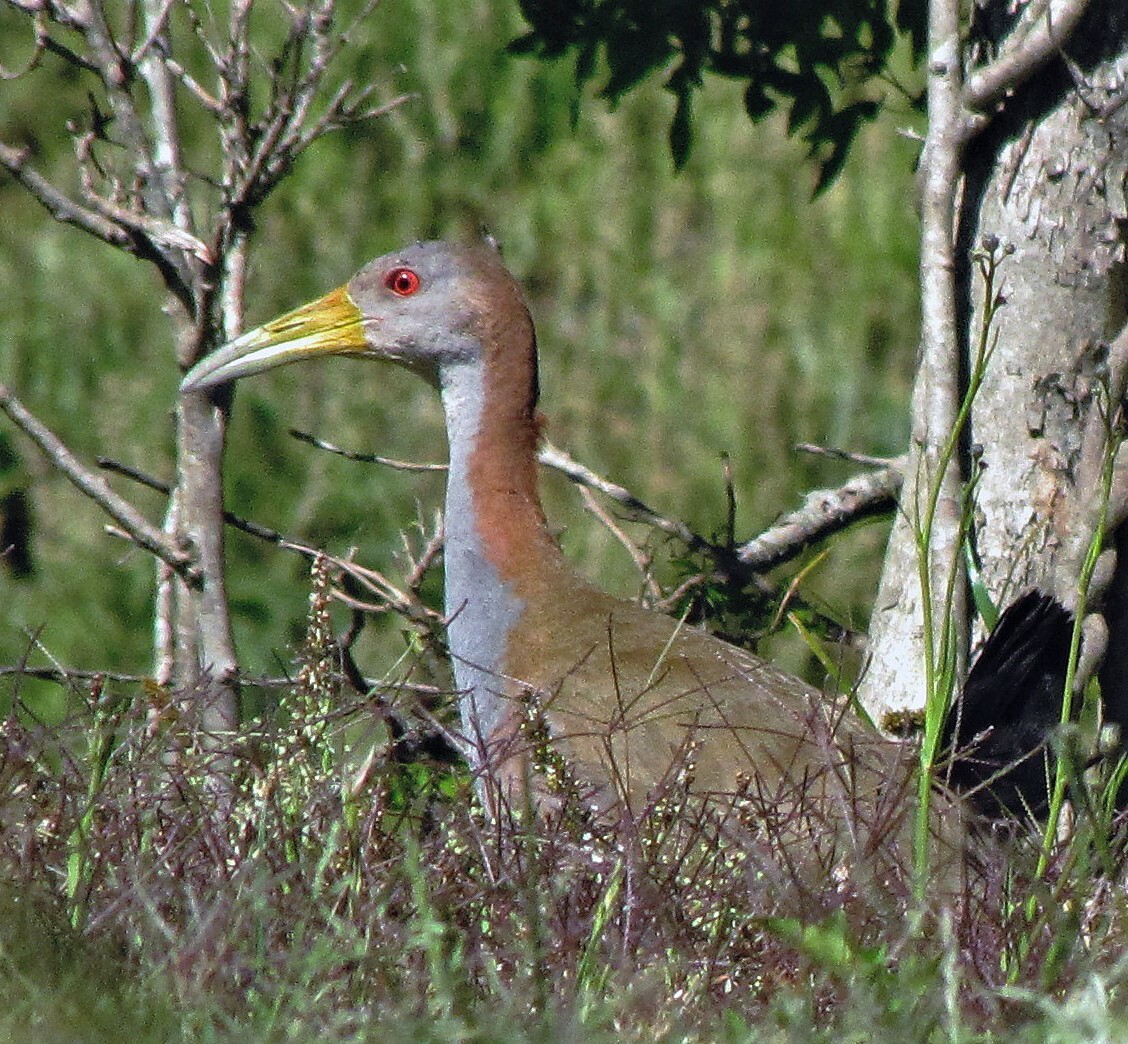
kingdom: Animalia
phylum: Chordata
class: Aves
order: Gruiformes
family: Rallidae
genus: Aramides
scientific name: Aramides ypecaha
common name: Giant wood rail
